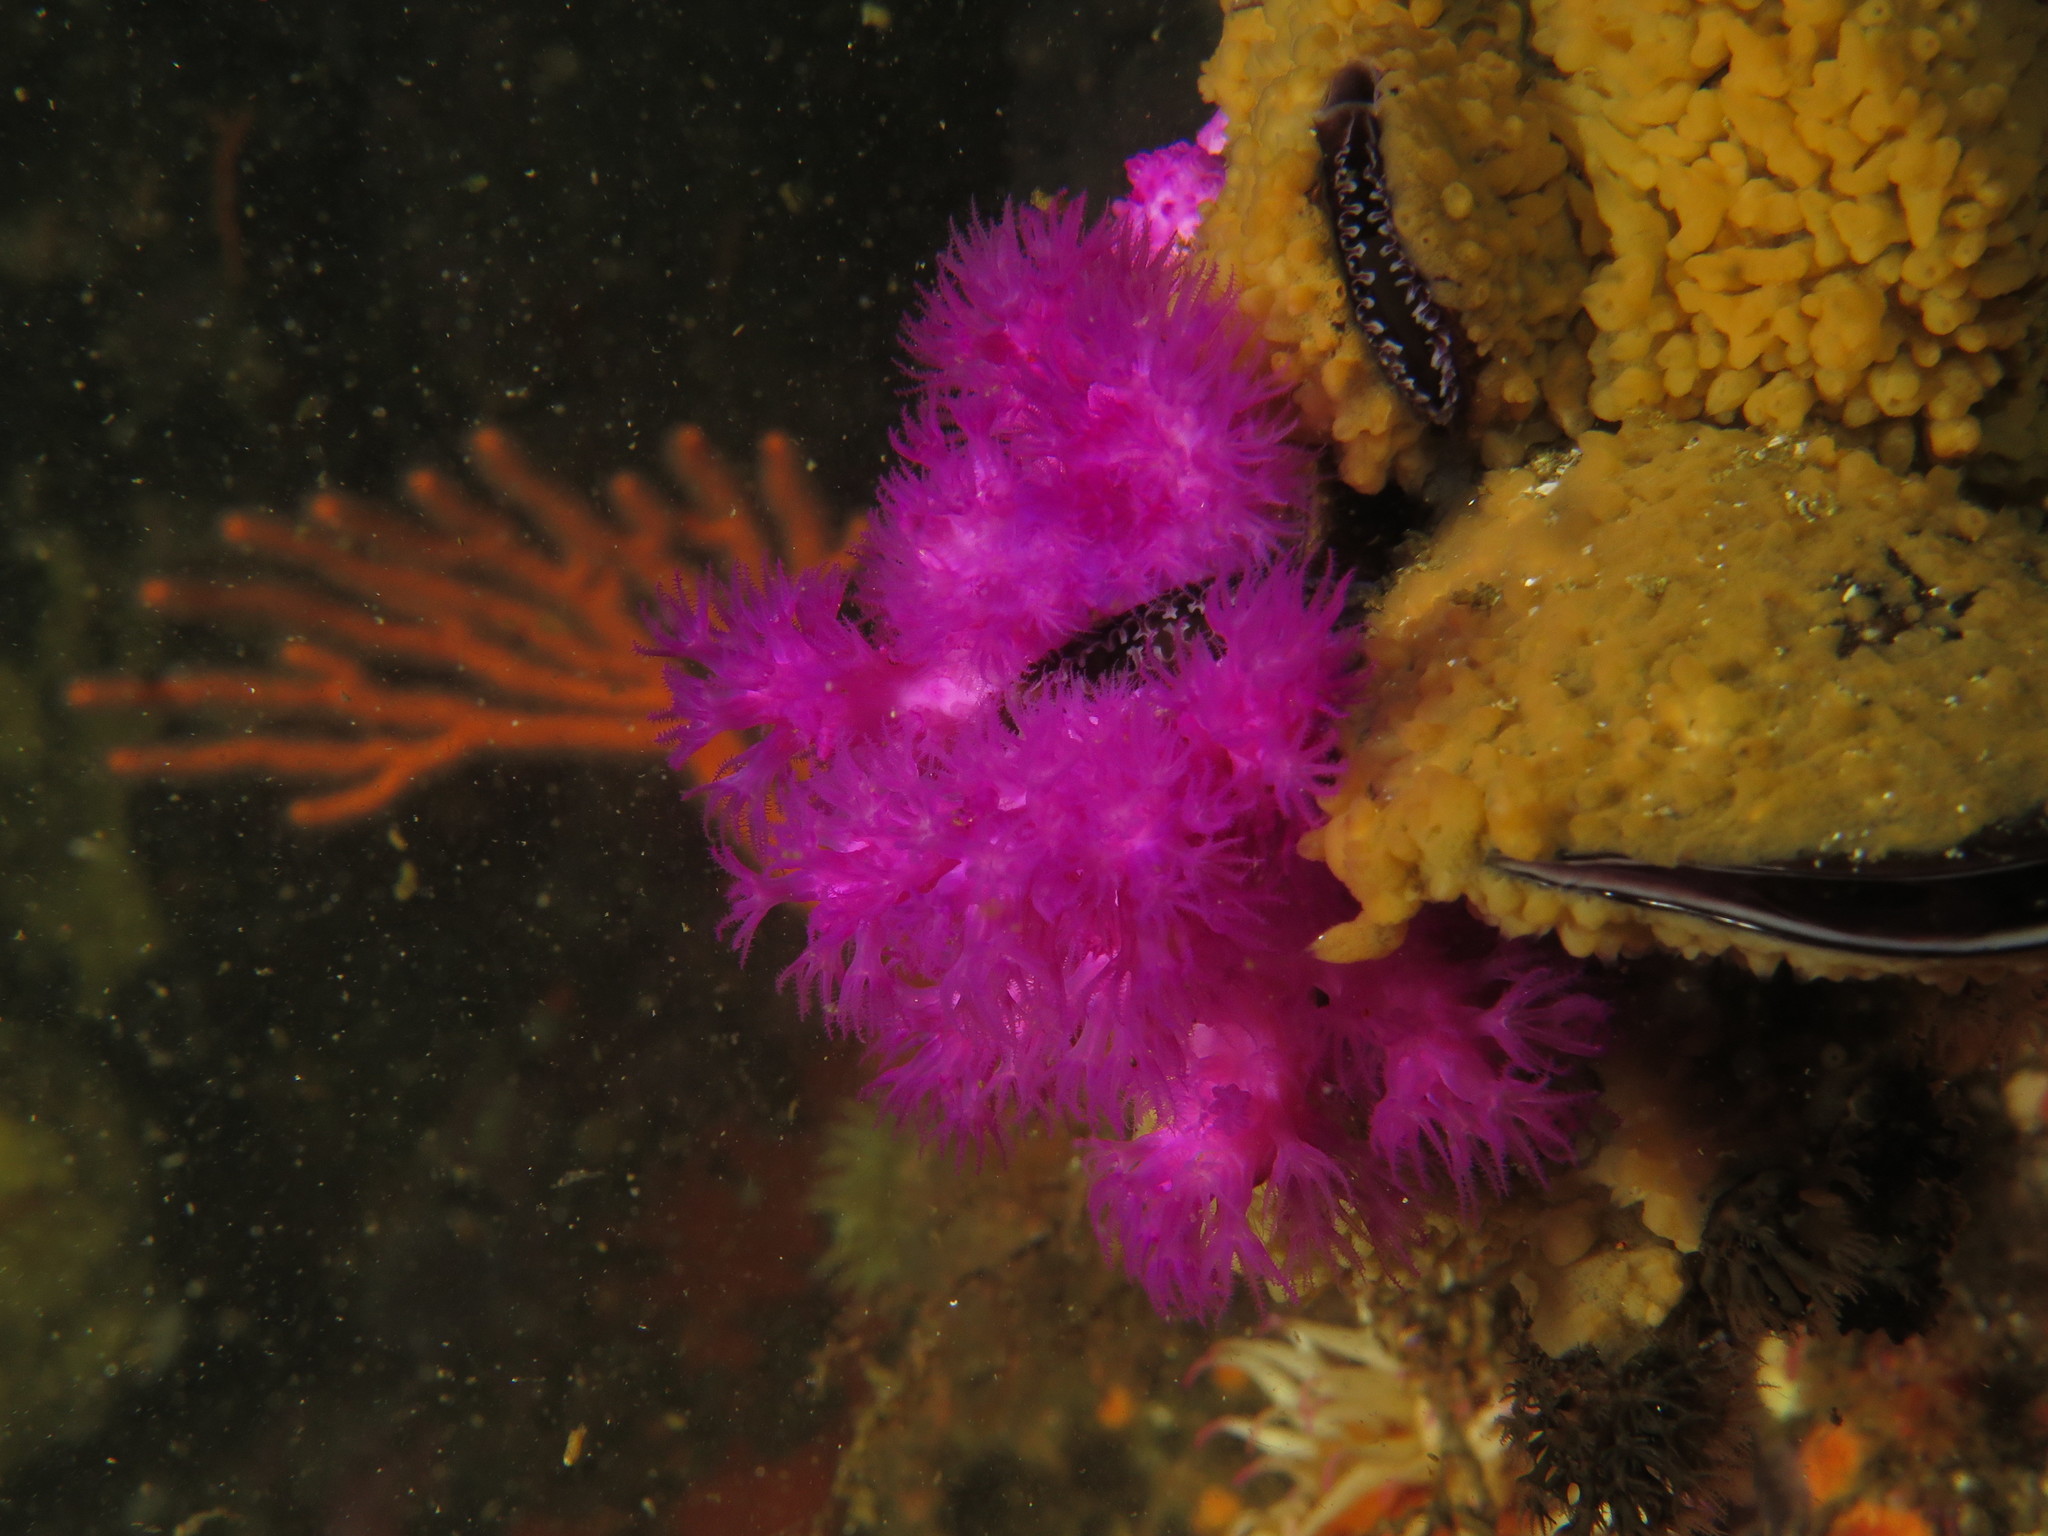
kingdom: Animalia
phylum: Cnidaria
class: Anthozoa
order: Malacalcyonacea
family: Leptophytidae
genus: Tenerodus
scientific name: Tenerodus fallax
